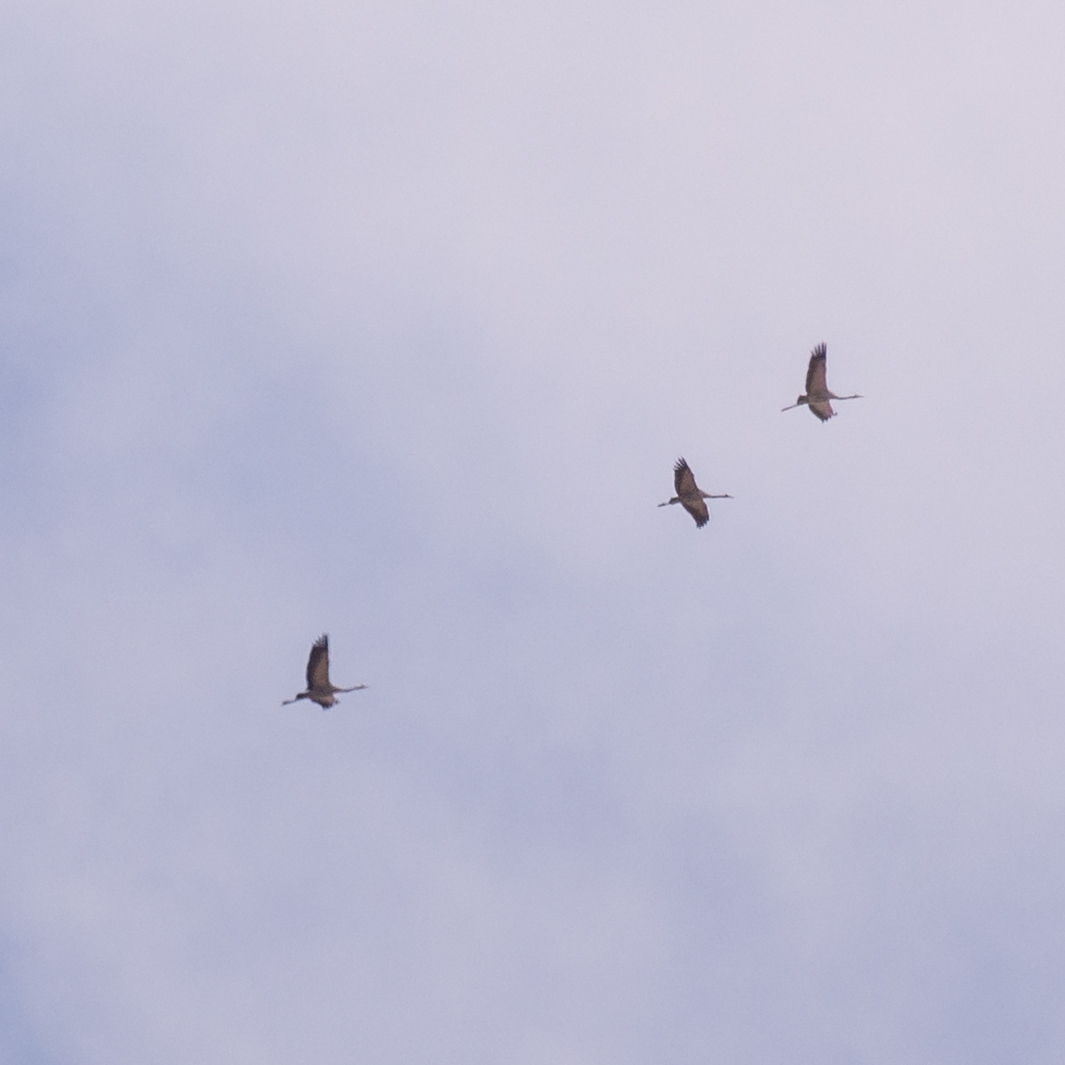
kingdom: Animalia
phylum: Chordata
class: Aves
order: Gruiformes
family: Gruidae
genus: Grus
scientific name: Grus grus
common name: Common crane
